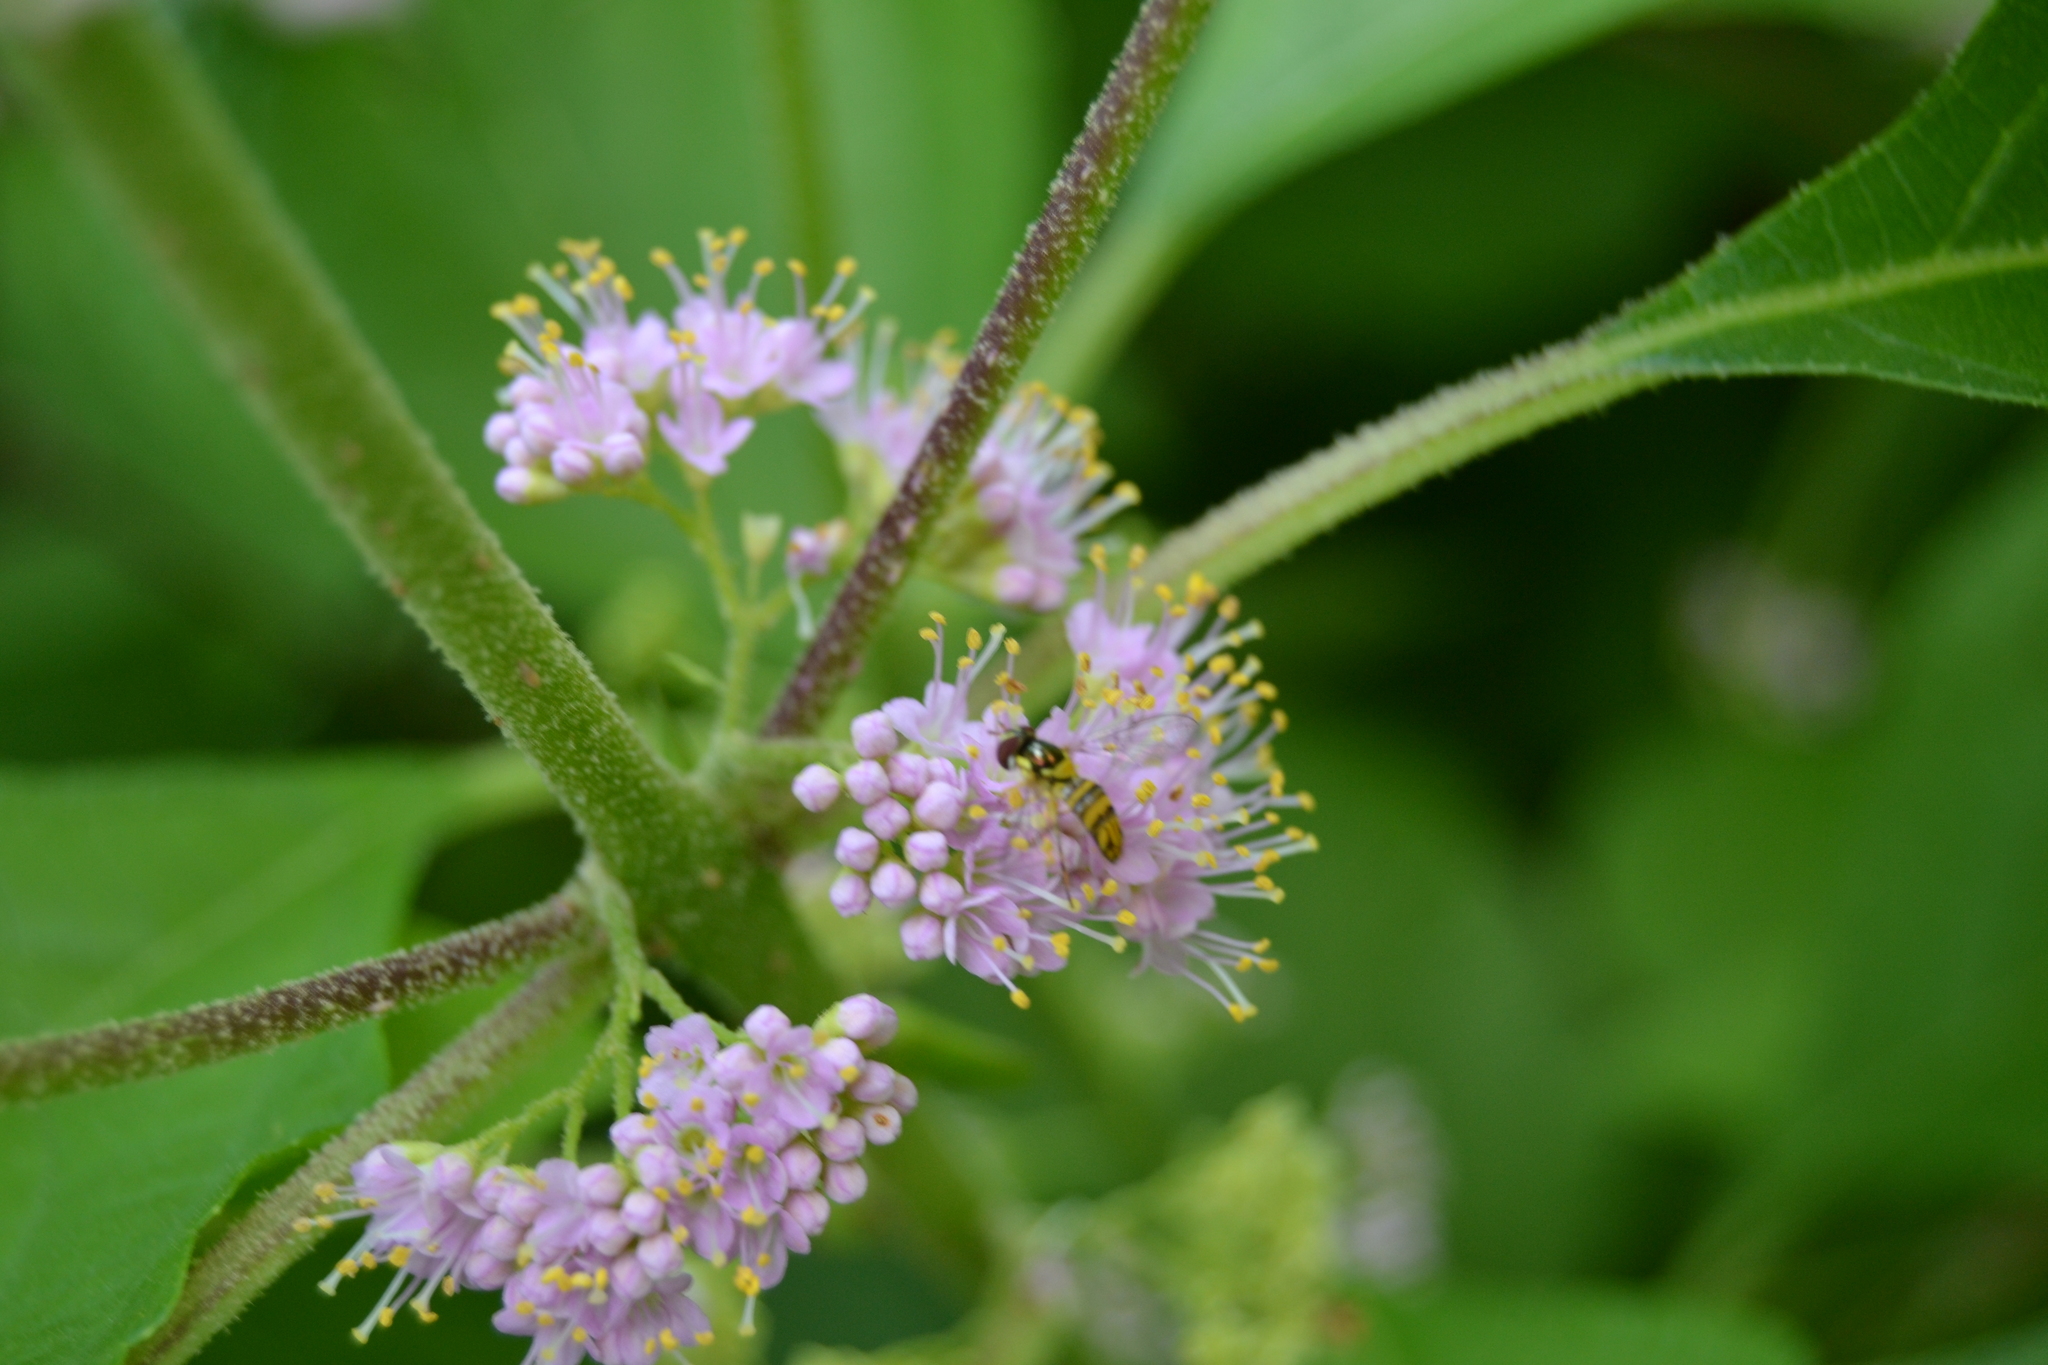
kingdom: Animalia
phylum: Arthropoda
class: Insecta
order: Diptera
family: Syrphidae
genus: Allograpta
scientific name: Allograpta obliqua
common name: Common oblique syrphid
